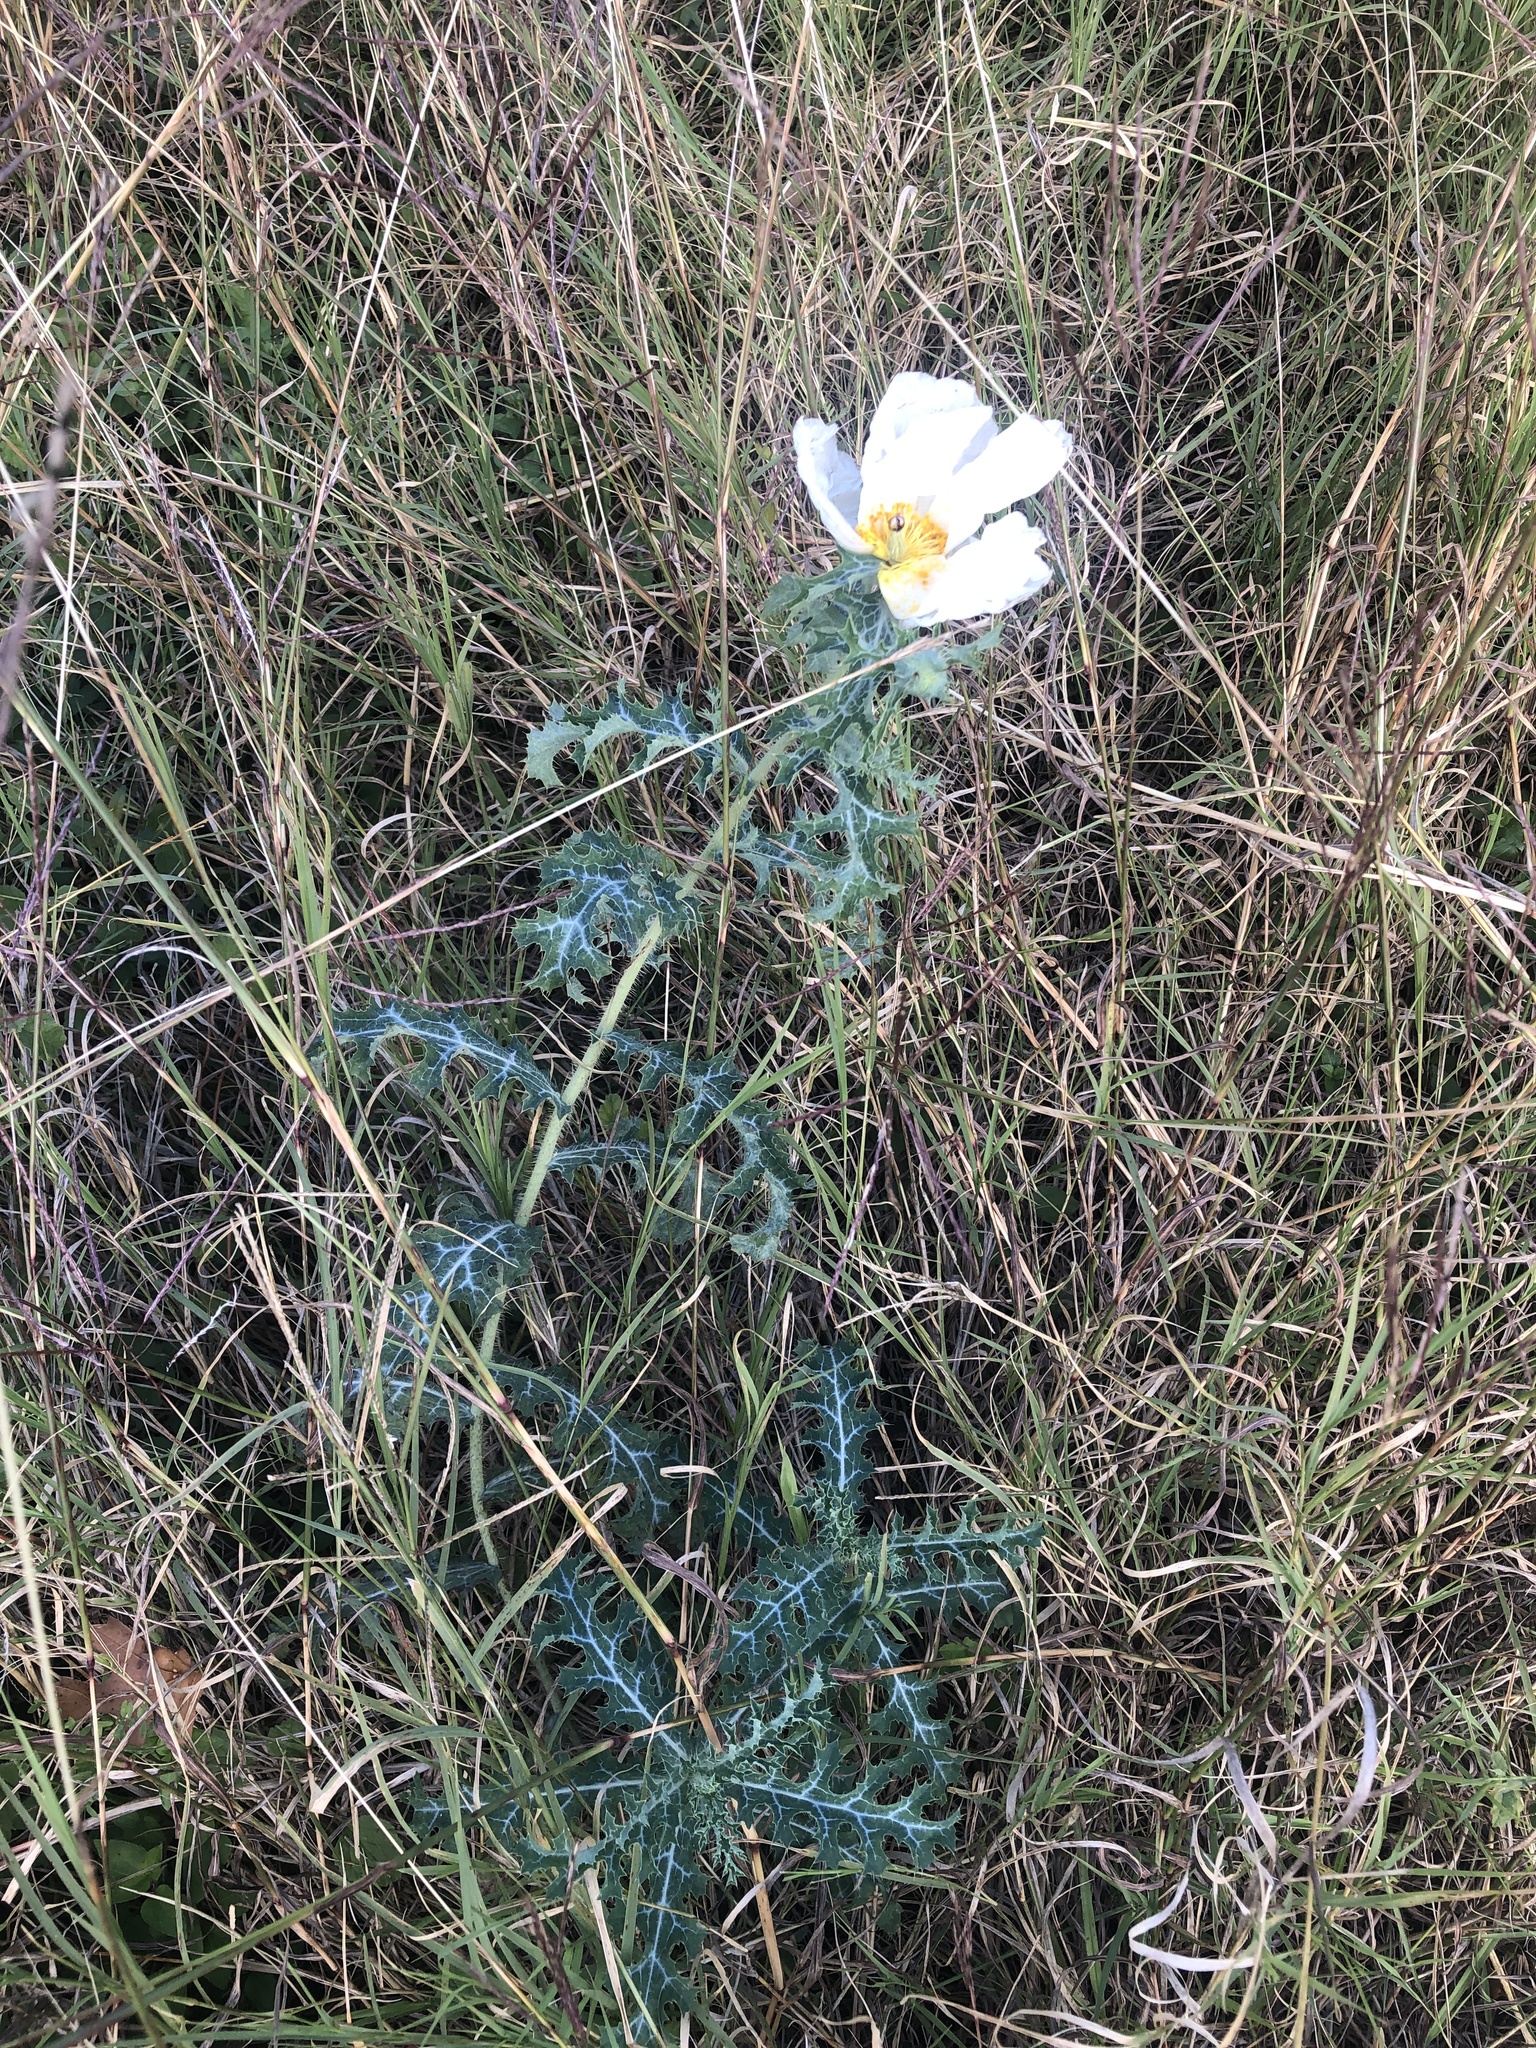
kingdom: Plantae
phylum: Tracheophyta
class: Magnoliopsida
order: Ranunculales
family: Papaveraceae
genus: Argemone
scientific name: Argemone albiflora
